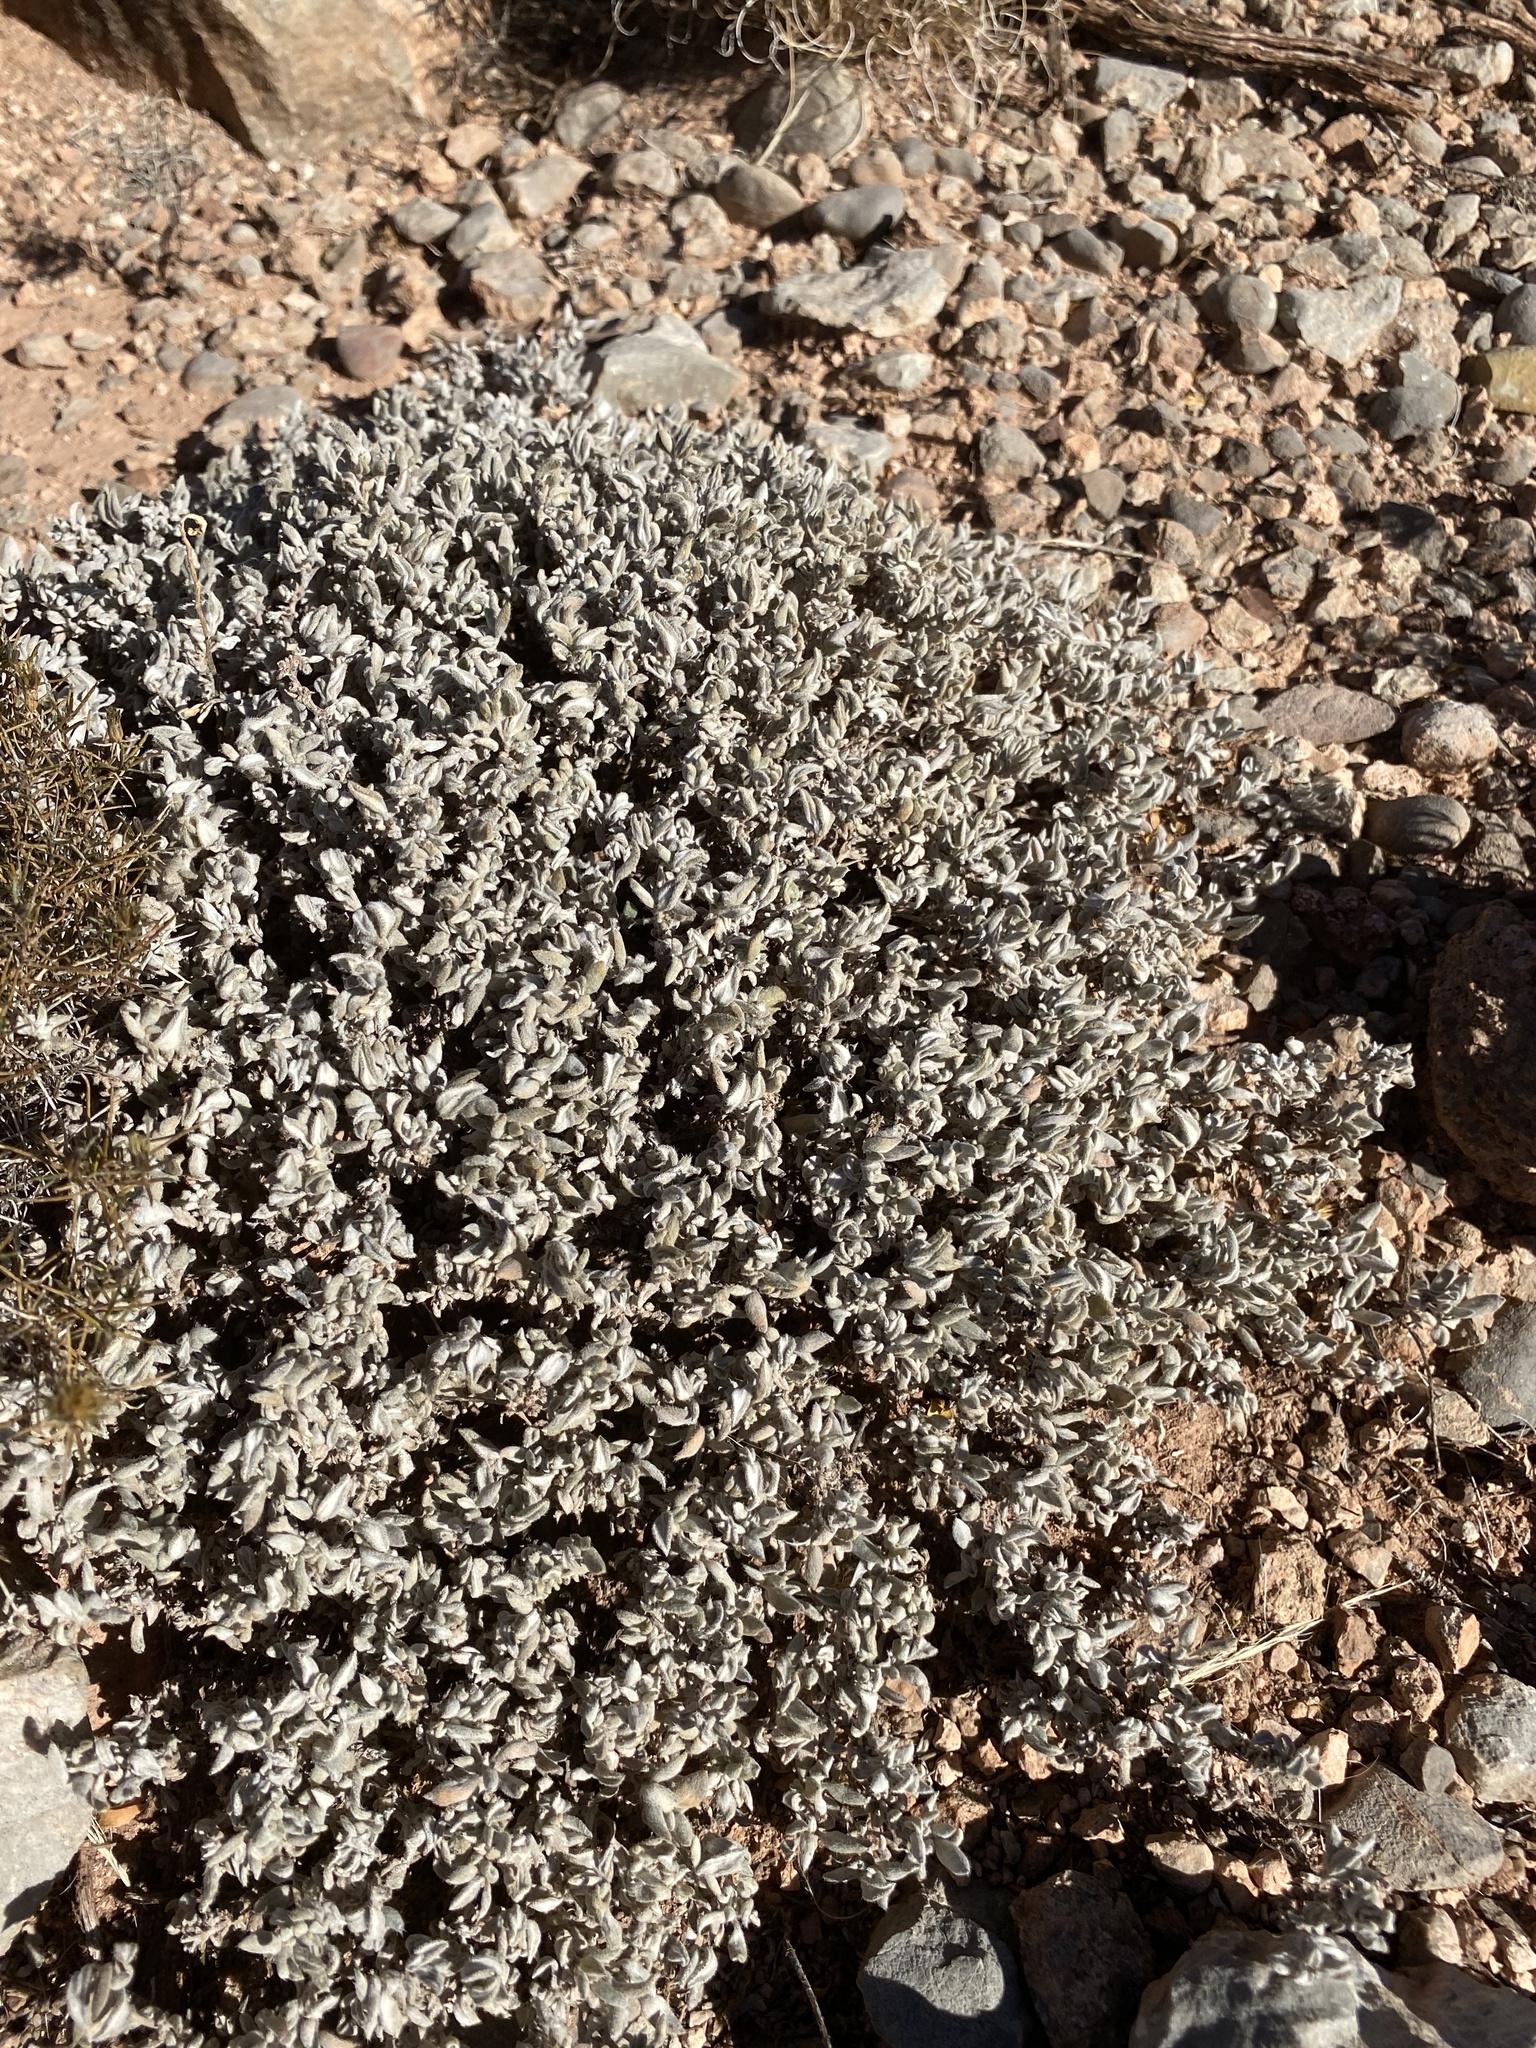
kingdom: Plantae
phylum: Tracheophyta
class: Magnoliopsida
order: Boraginales
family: Ehretiaceae
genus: Tiquilia
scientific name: Tiquilia canescens
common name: Hairy tiquilia
